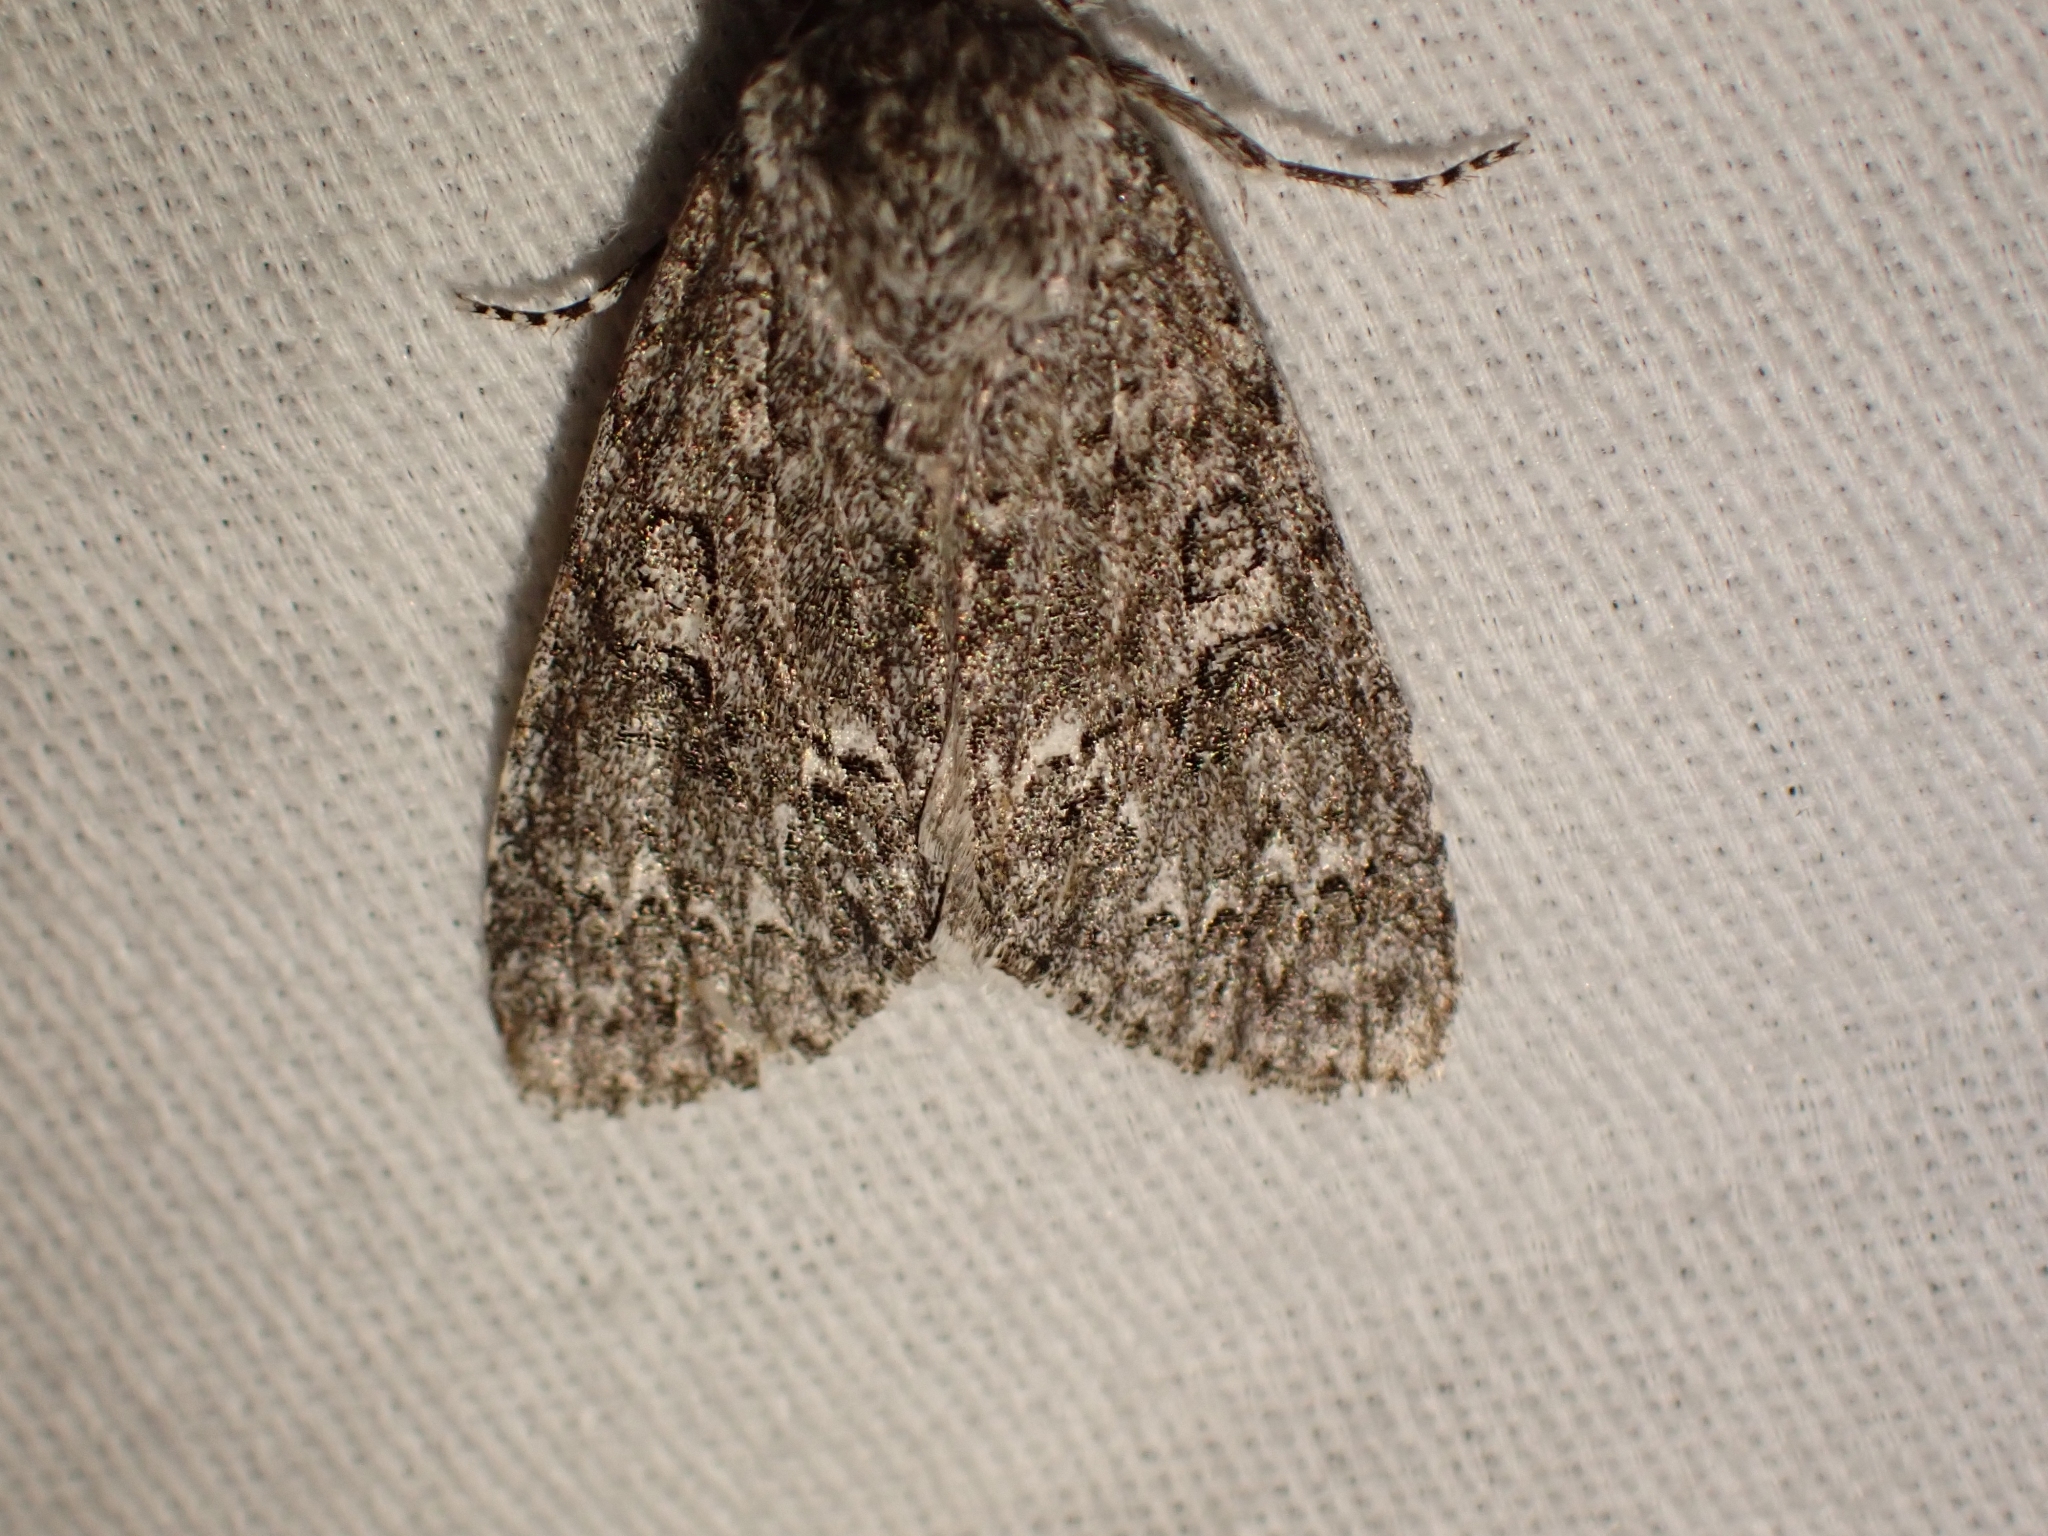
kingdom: Animalia
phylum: Arthropoda
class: Insecta
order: Lepidoptera
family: Noctuidae
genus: Acronicta
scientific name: Acronicta impleta
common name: Powdered dagger
